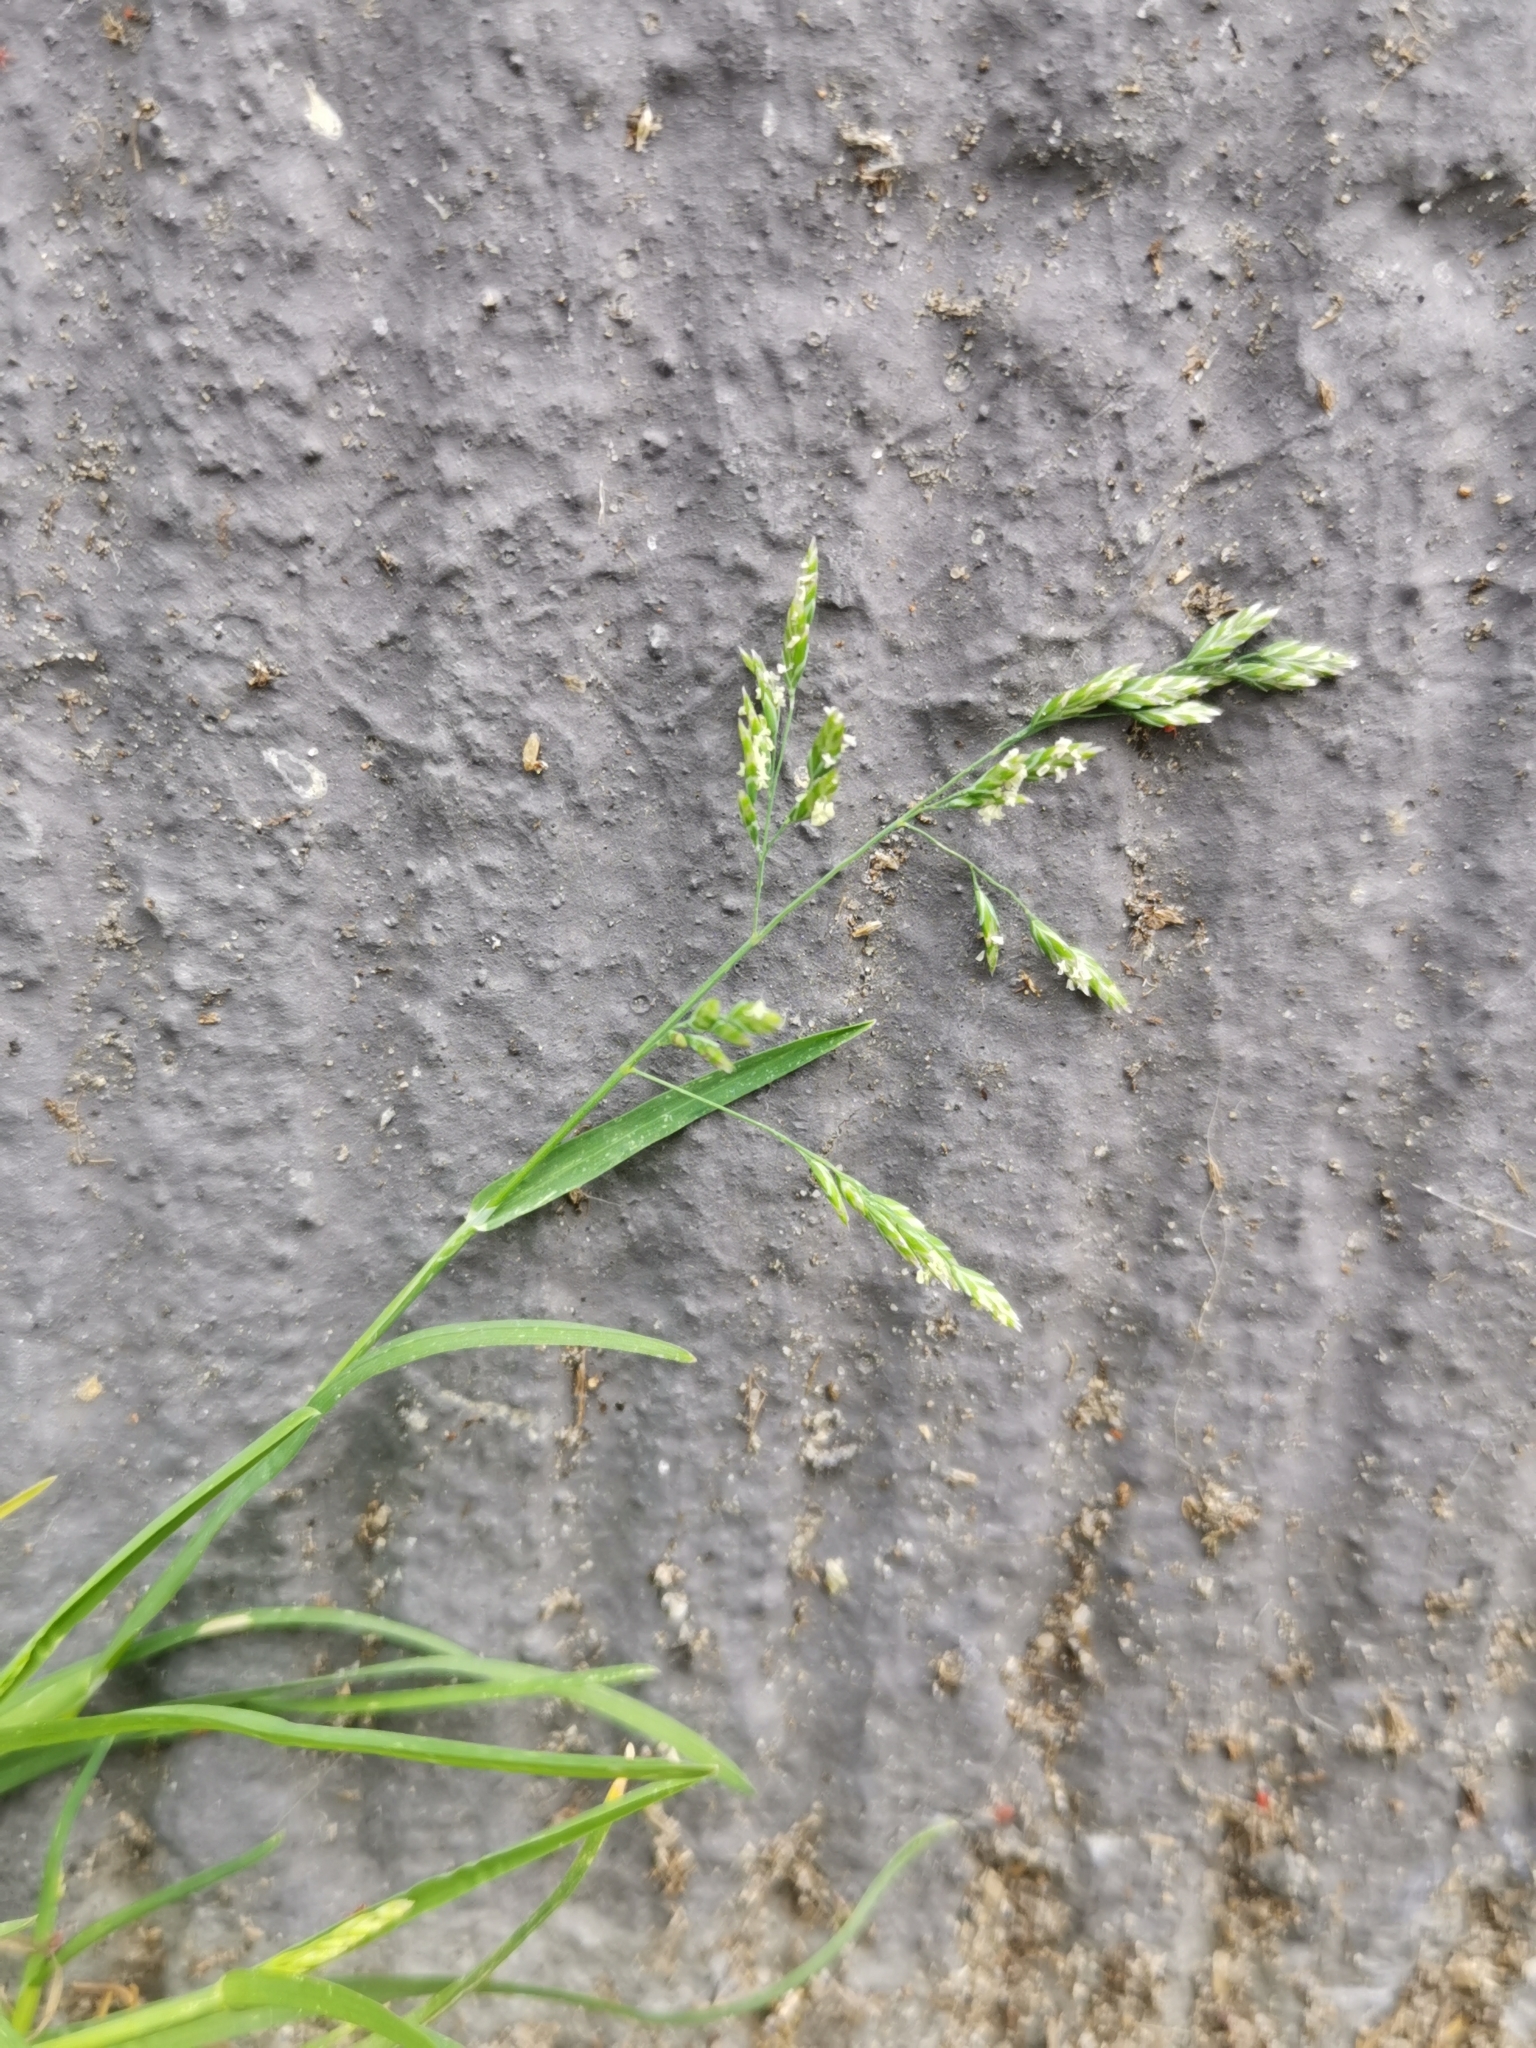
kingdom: Plantae
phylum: Tracheophyta
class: Liliopsida
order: Poales
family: Poaceae
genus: Poa
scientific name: Poa annua
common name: Annual bluegrass
